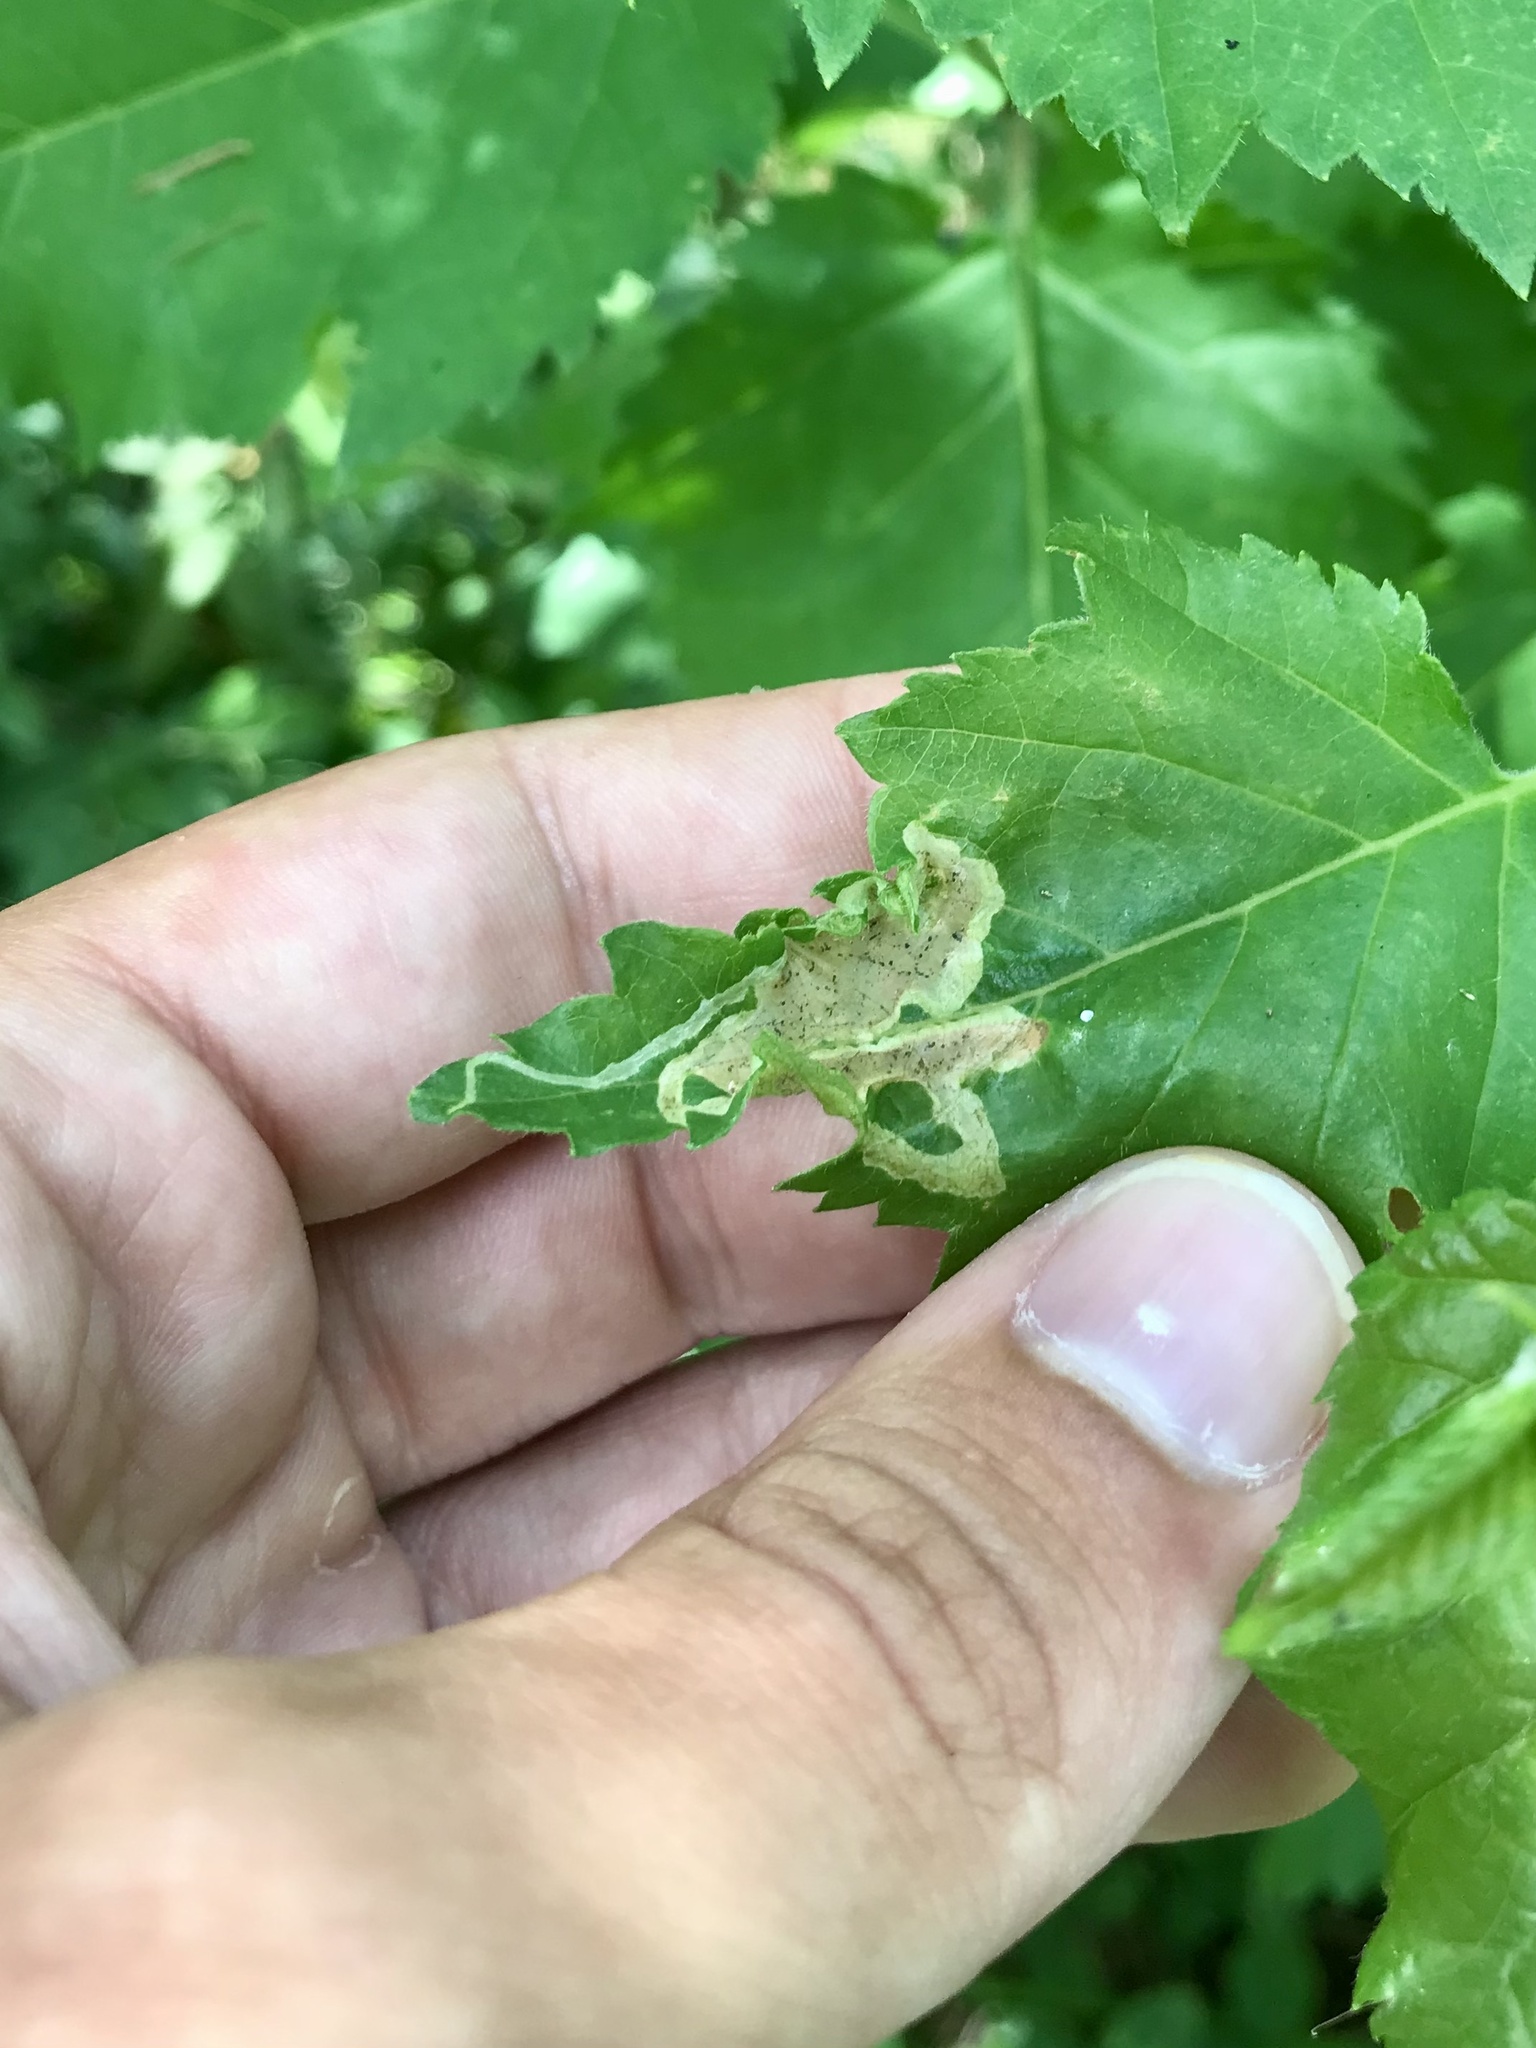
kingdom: Animalia
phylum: Arthropoda
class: Insecta
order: Diptera
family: Agromyzidae
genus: Agromyza
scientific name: Agromyza alnibetulae
